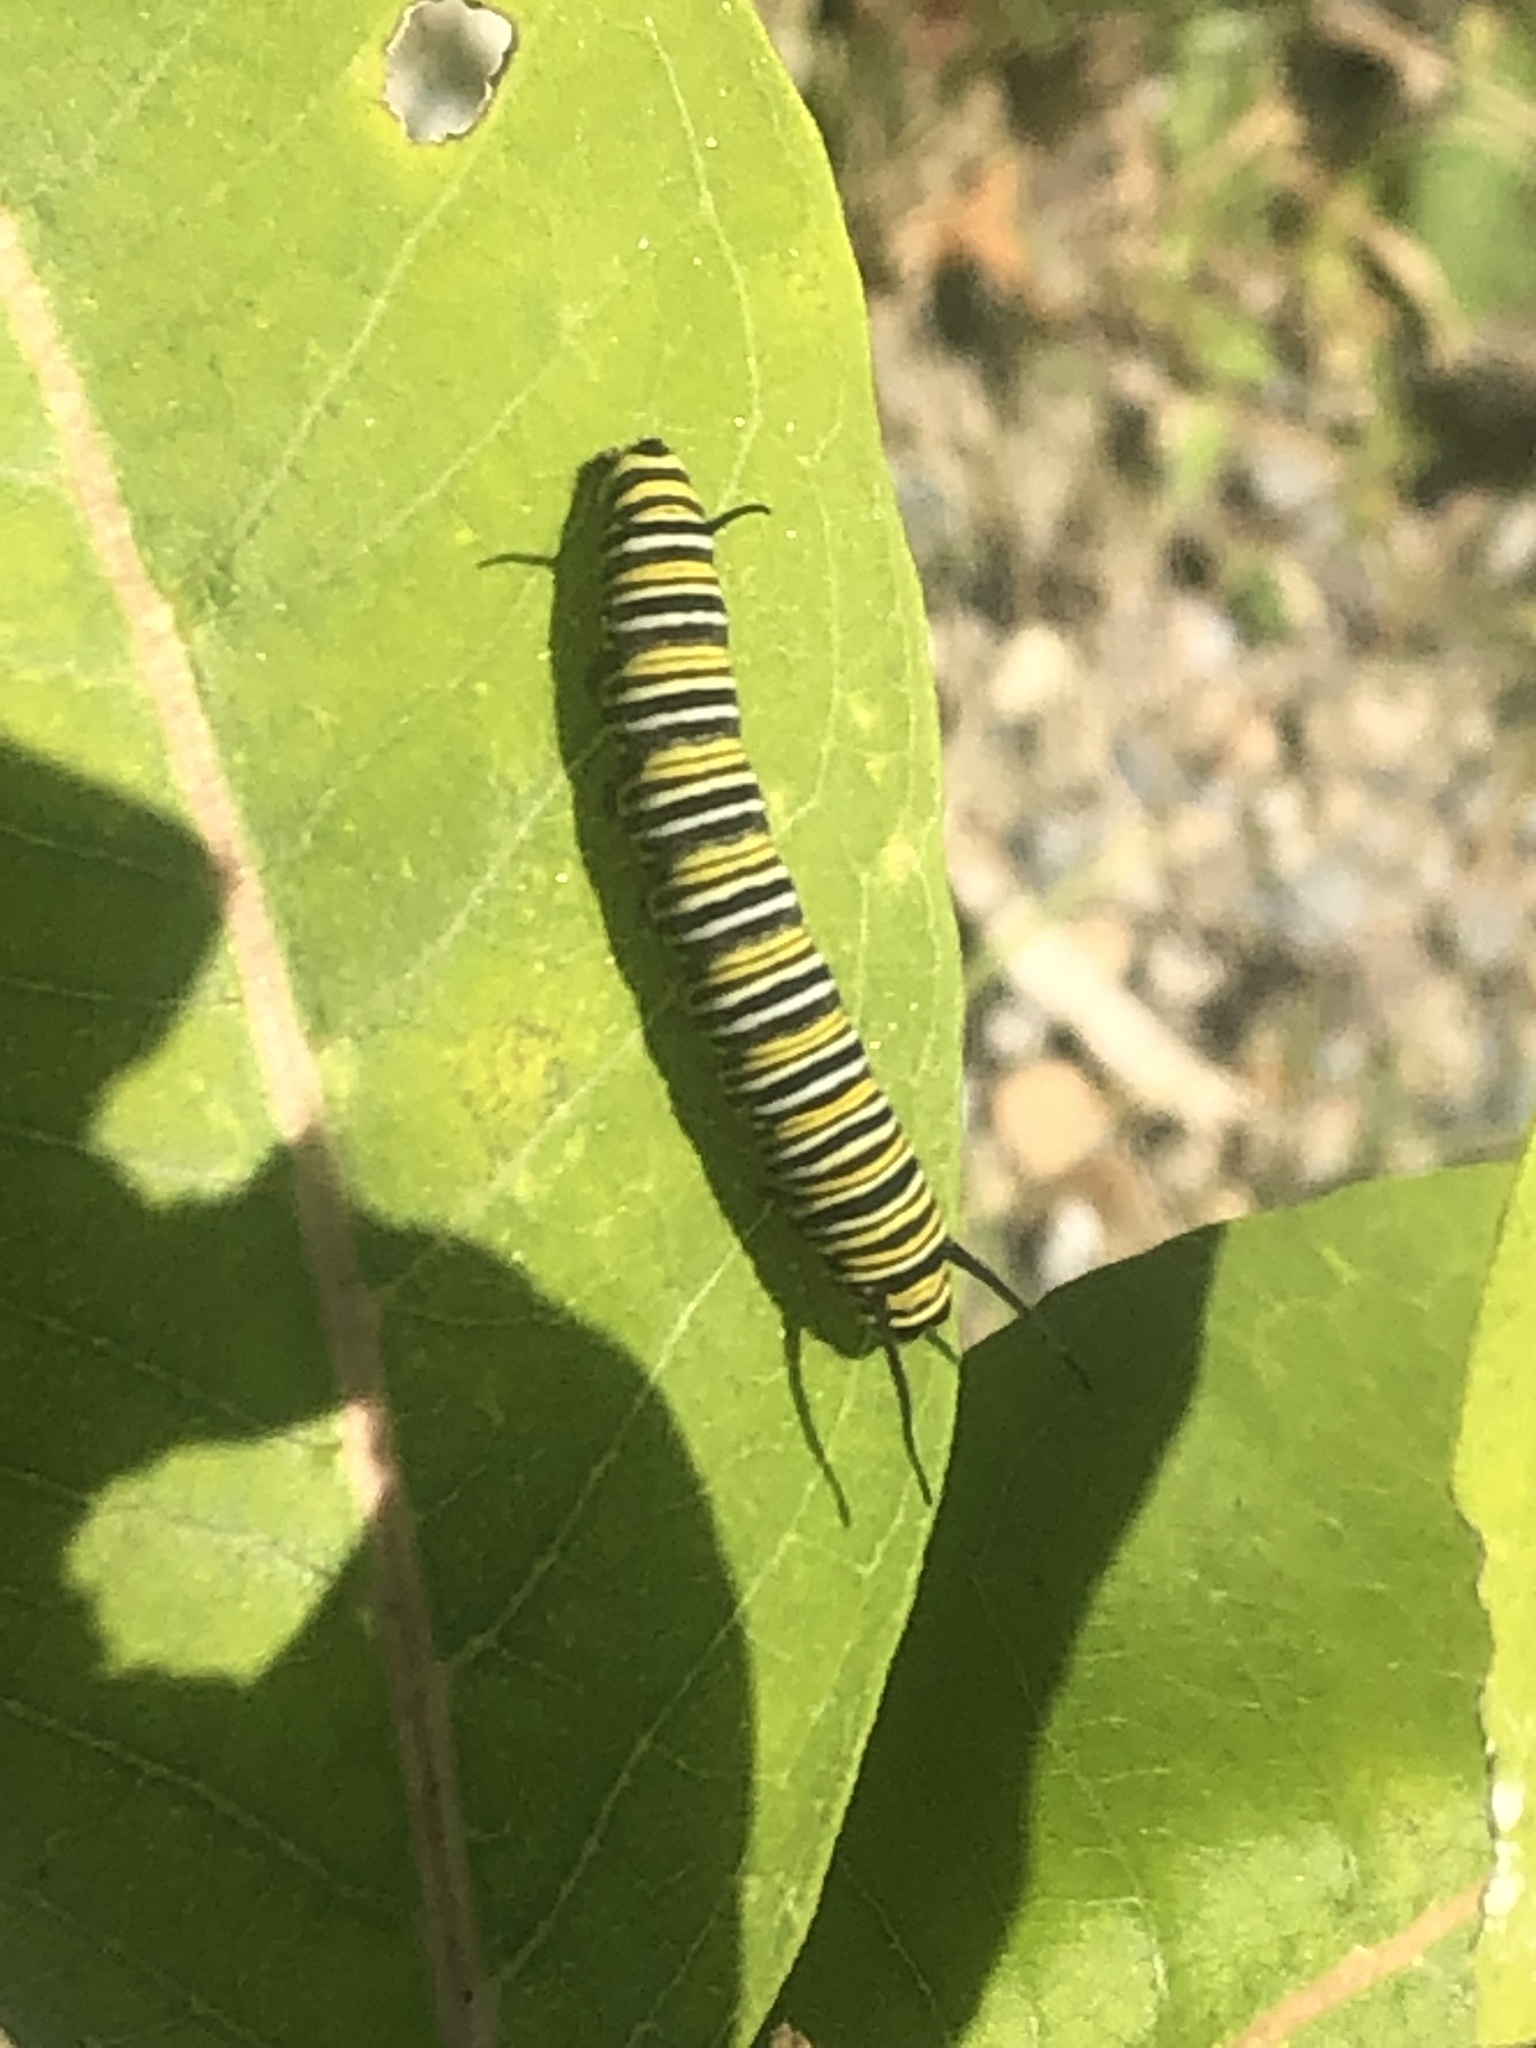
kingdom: Animalia
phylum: Arthropoda
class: Insecta
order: Lepidoptera
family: Nymphalidae
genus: Danaus
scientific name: Danaus plexippus
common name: Monarch
